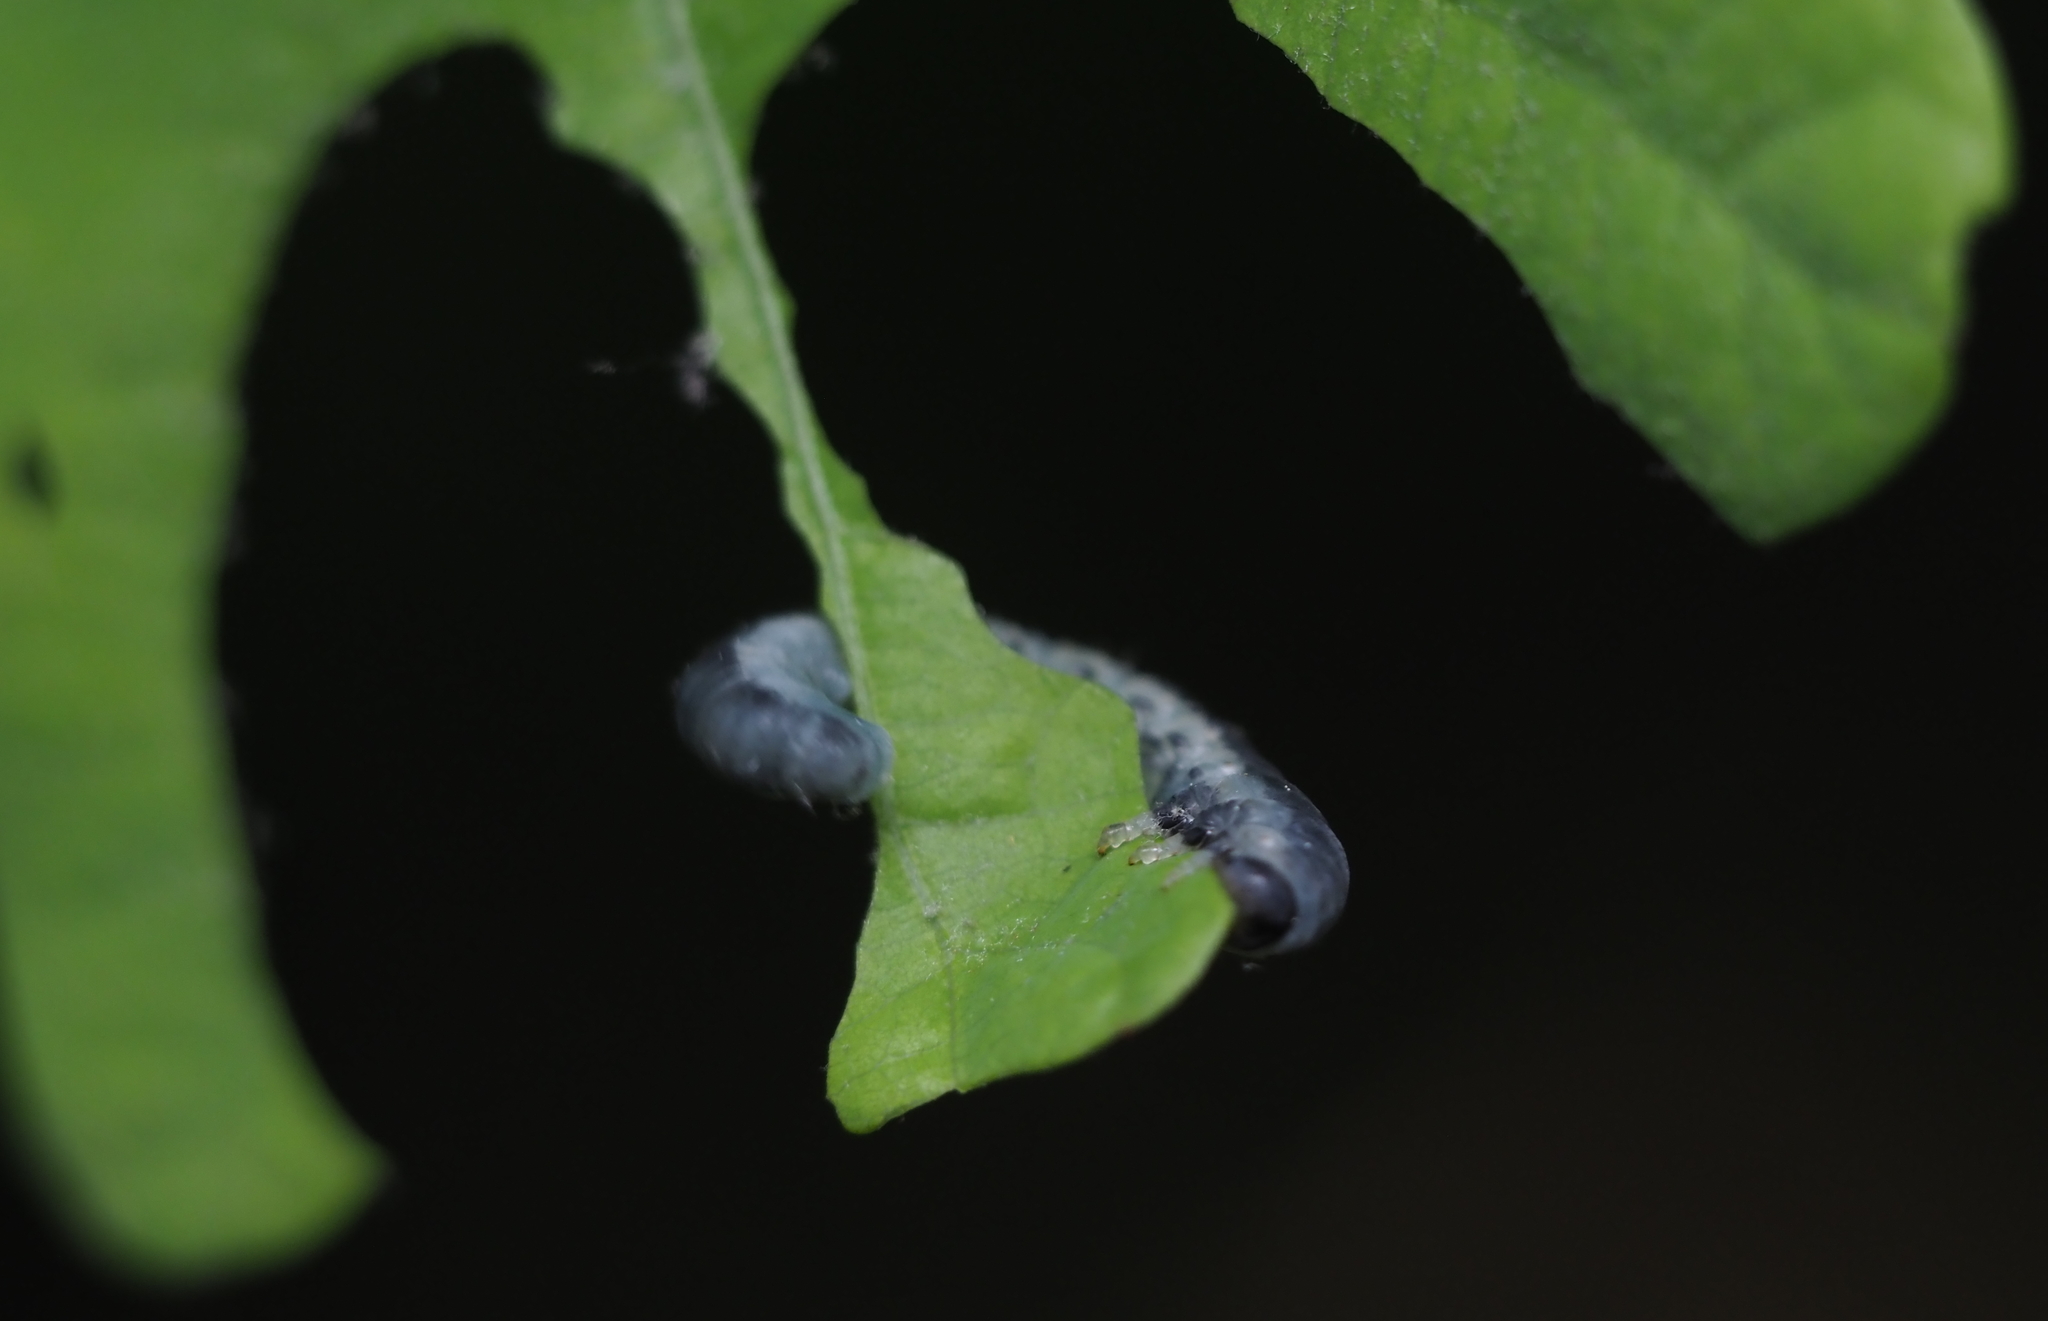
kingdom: Animalia
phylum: Arthropoda
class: Insecta
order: Hymenoptera
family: Tenthredinidae
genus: Craterocercus
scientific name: Craterocercus
